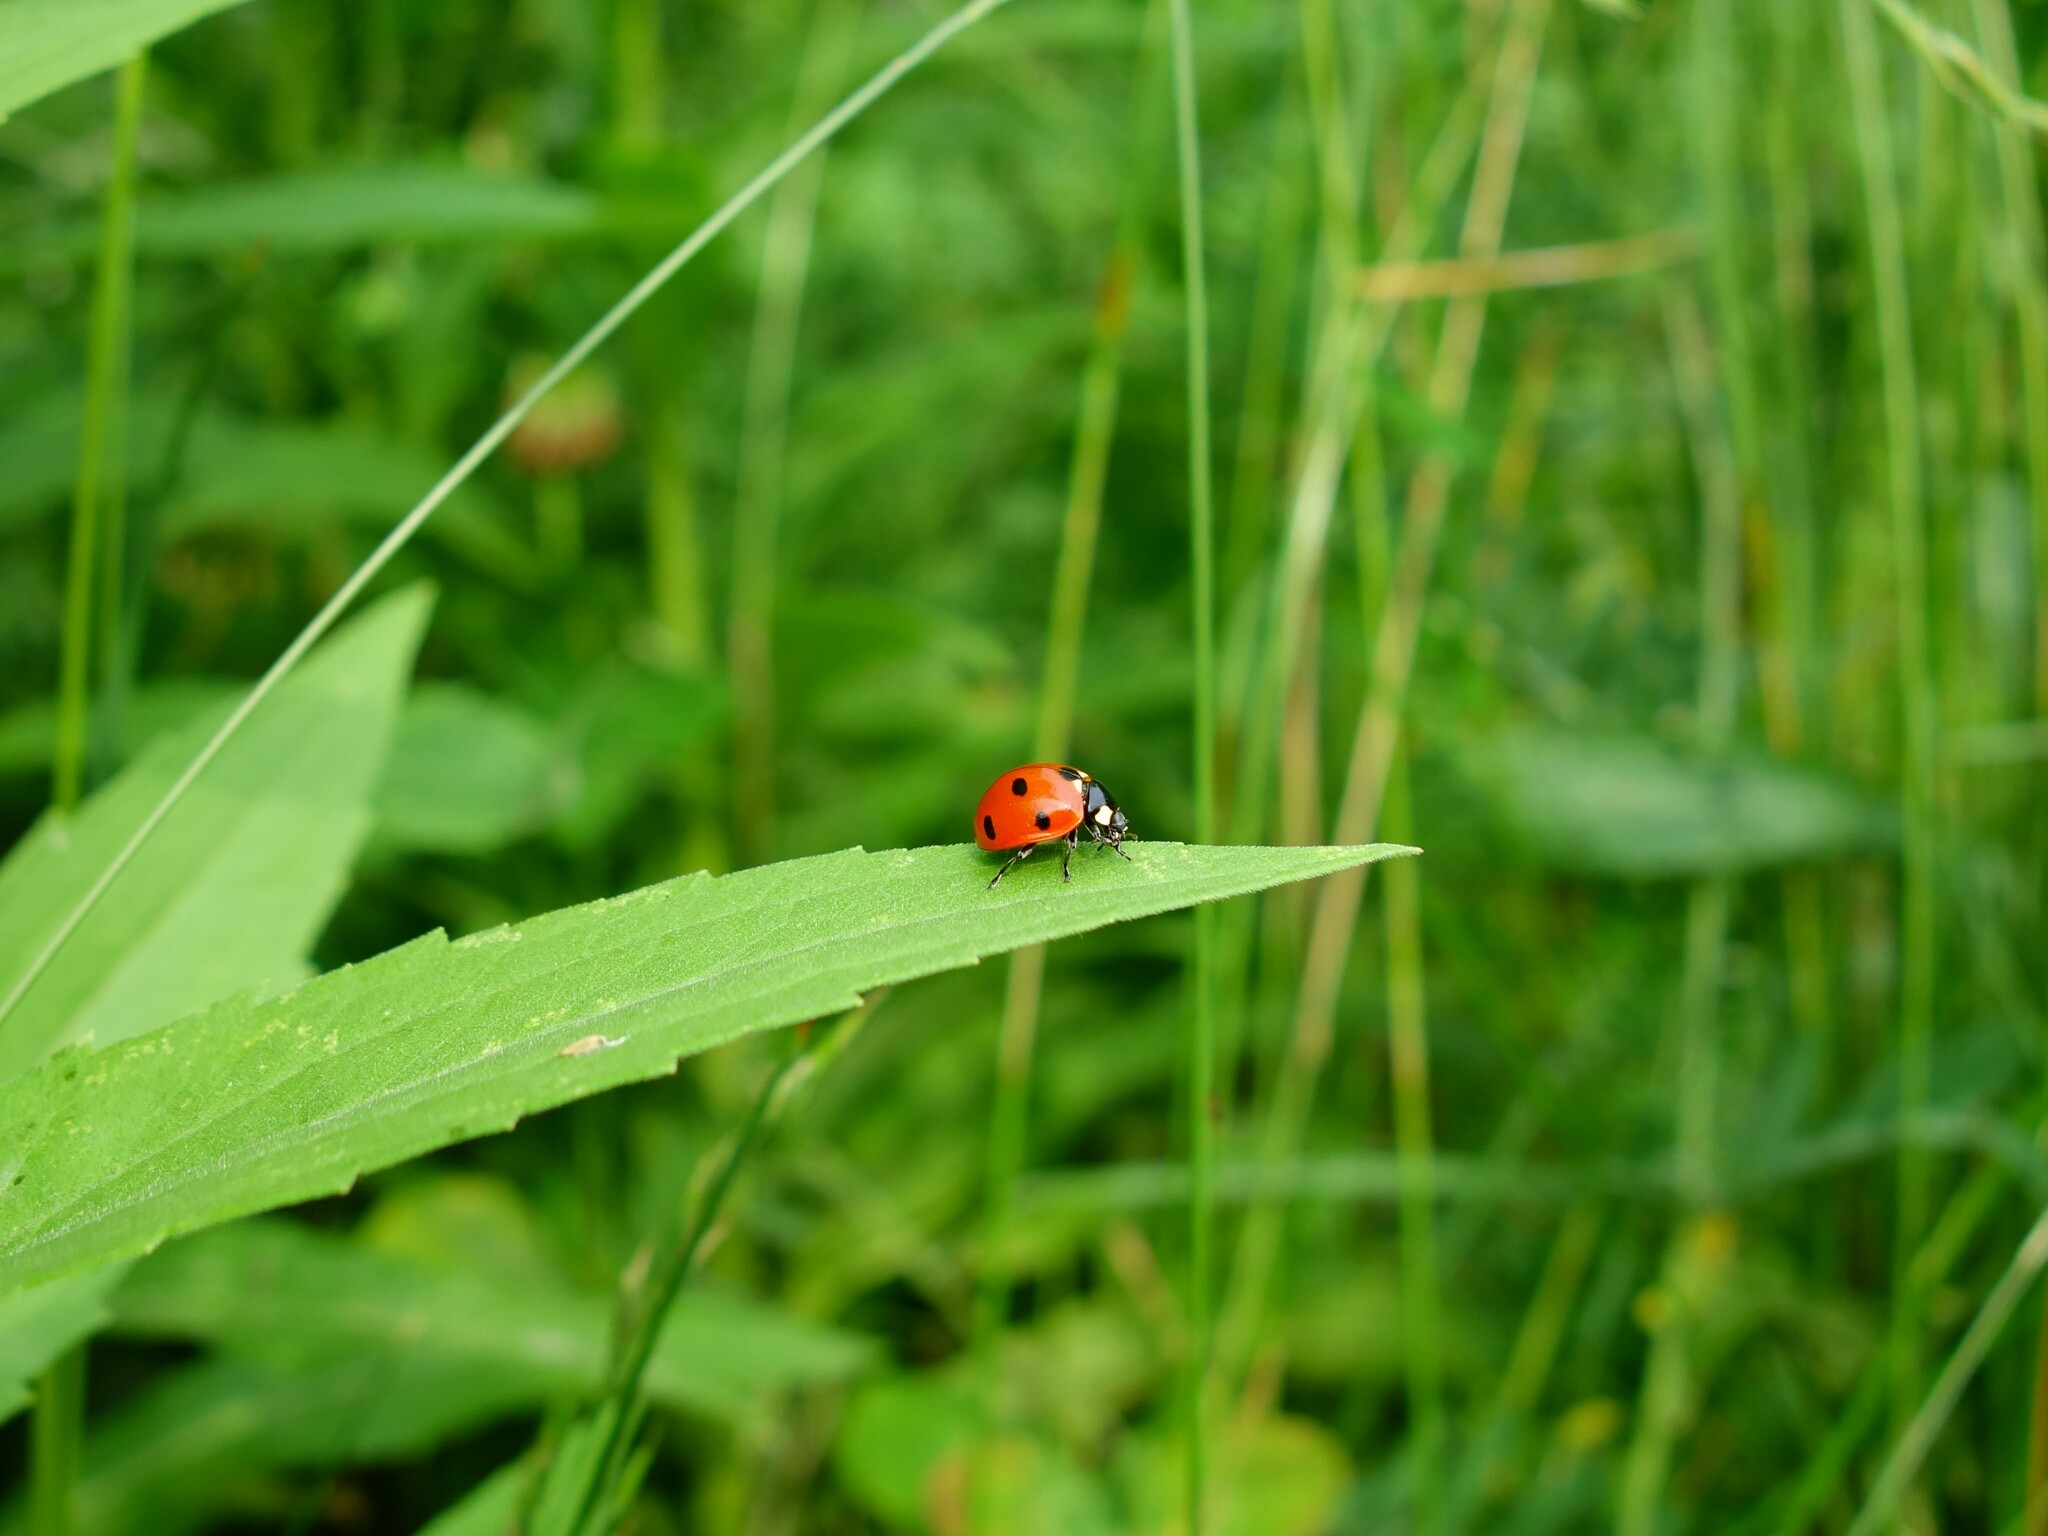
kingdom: Animalia
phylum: Arthropoda
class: Insecta
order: Coleoptera
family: Coccinellidae
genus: Coccinella
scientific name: Coccinella septempunctata
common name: Sevenspotted lady beetle
